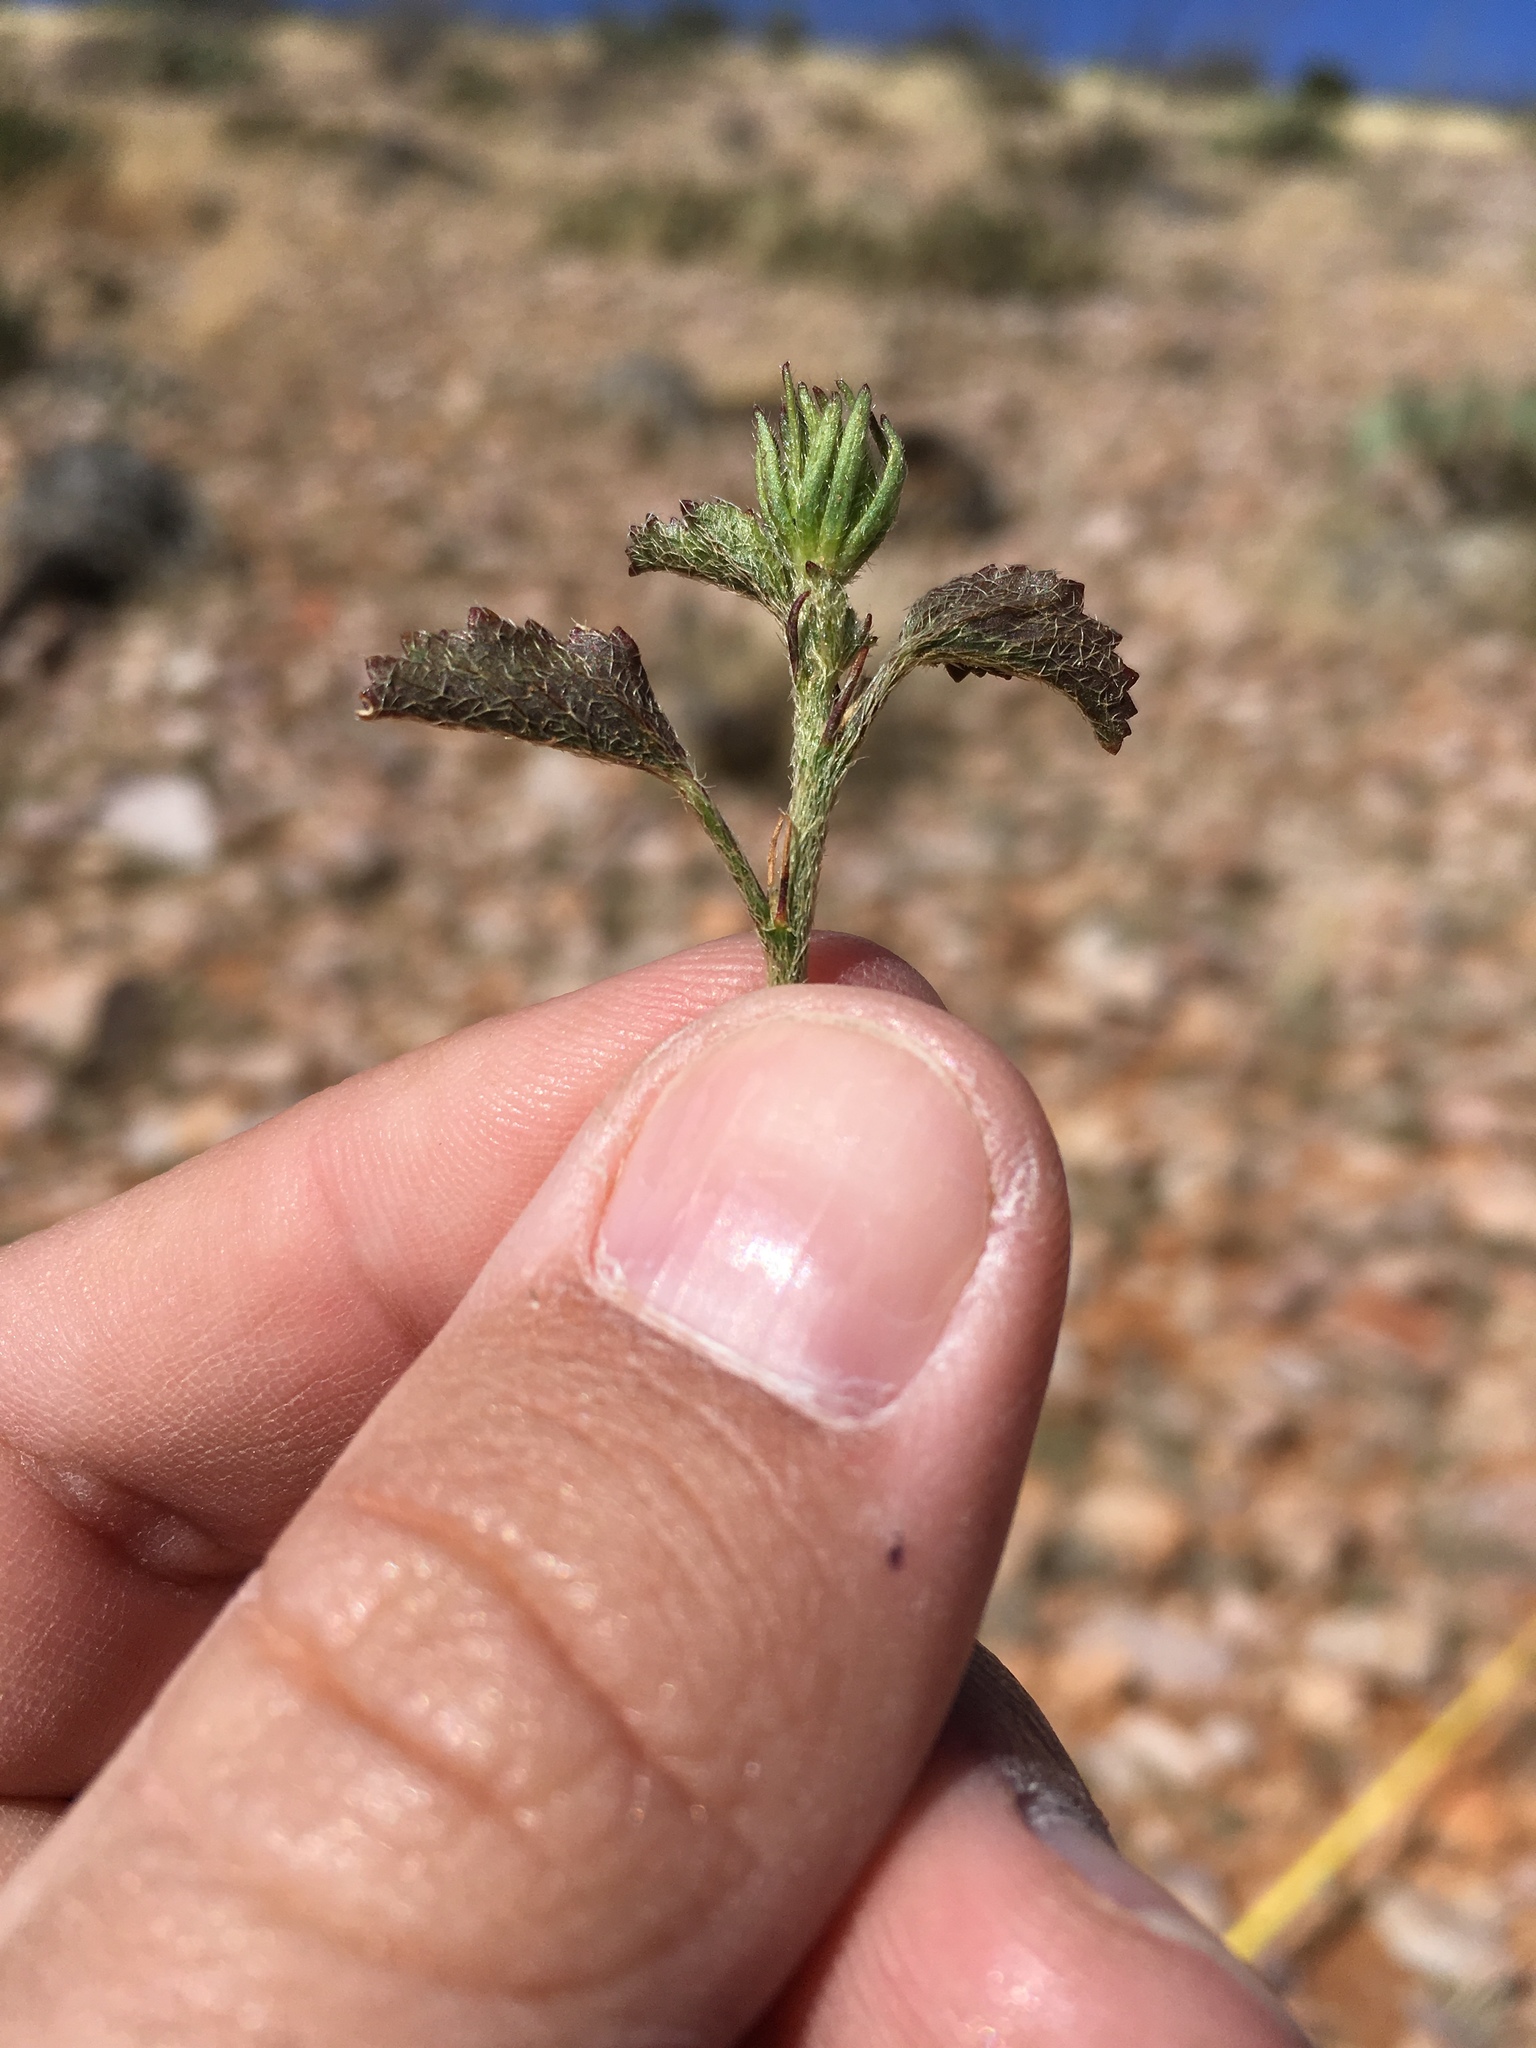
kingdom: Plantae
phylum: Tracheophyta
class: Magnoliopsida
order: Malvales
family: Malvaceae
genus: Hibiscus
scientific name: Hibiscus coulteri
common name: Desert rose-mallow
